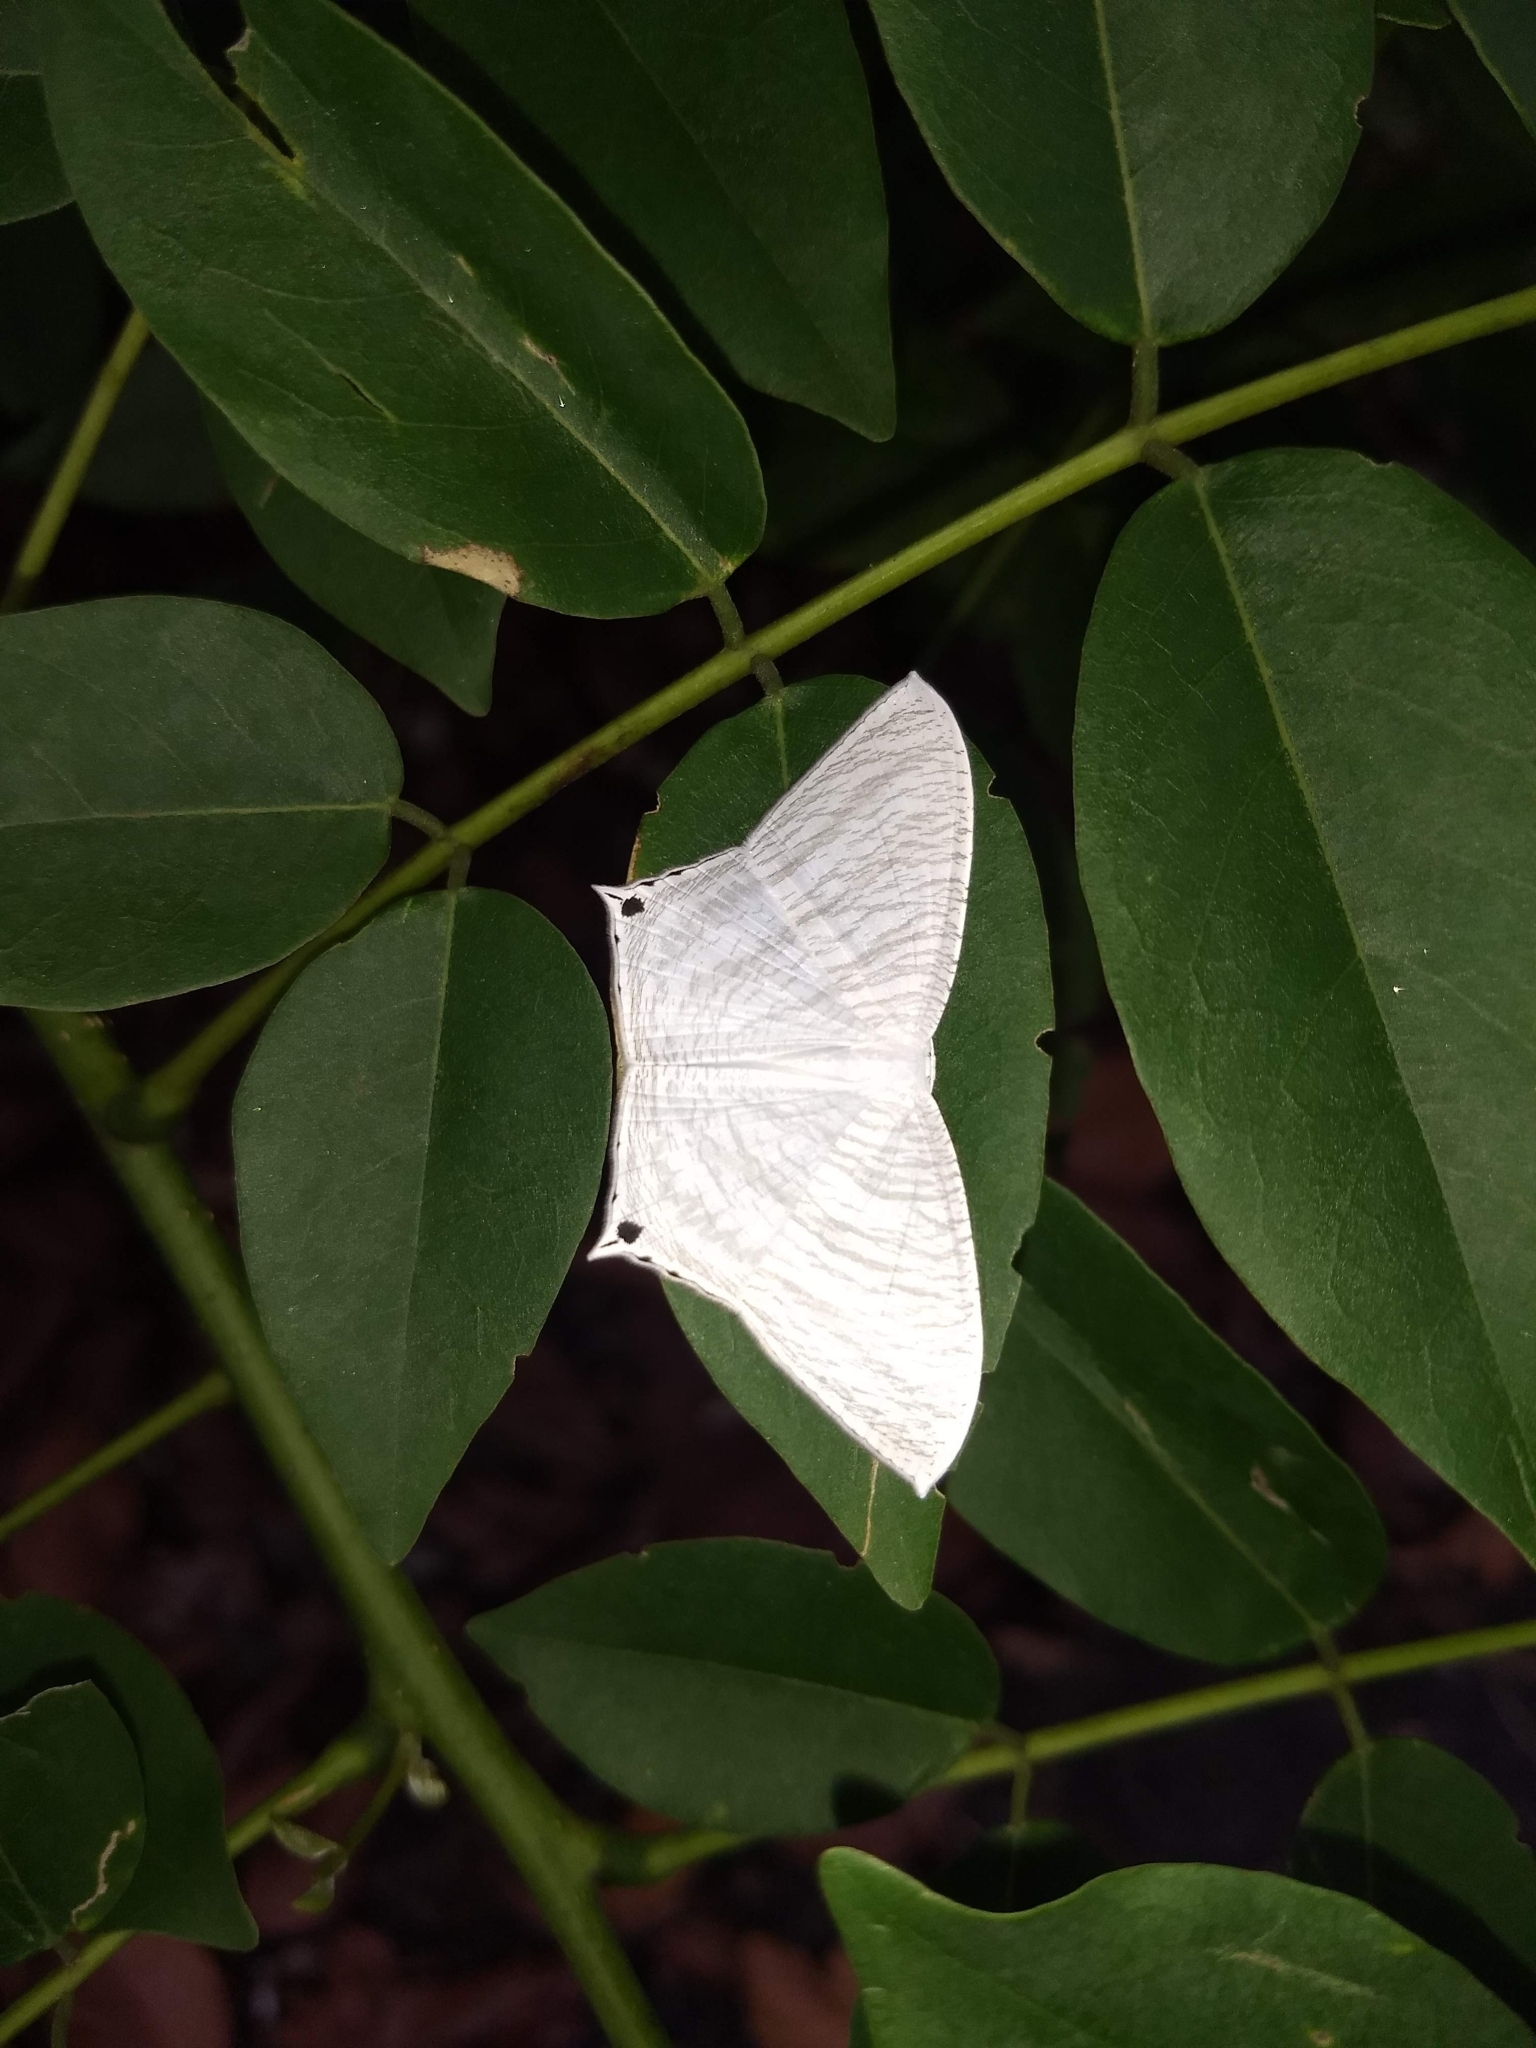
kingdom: Animalia
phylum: Arthropoda
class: Insecta
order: Lepidoptera
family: Uraniidae
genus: Micronia
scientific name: Micronia aculeata
